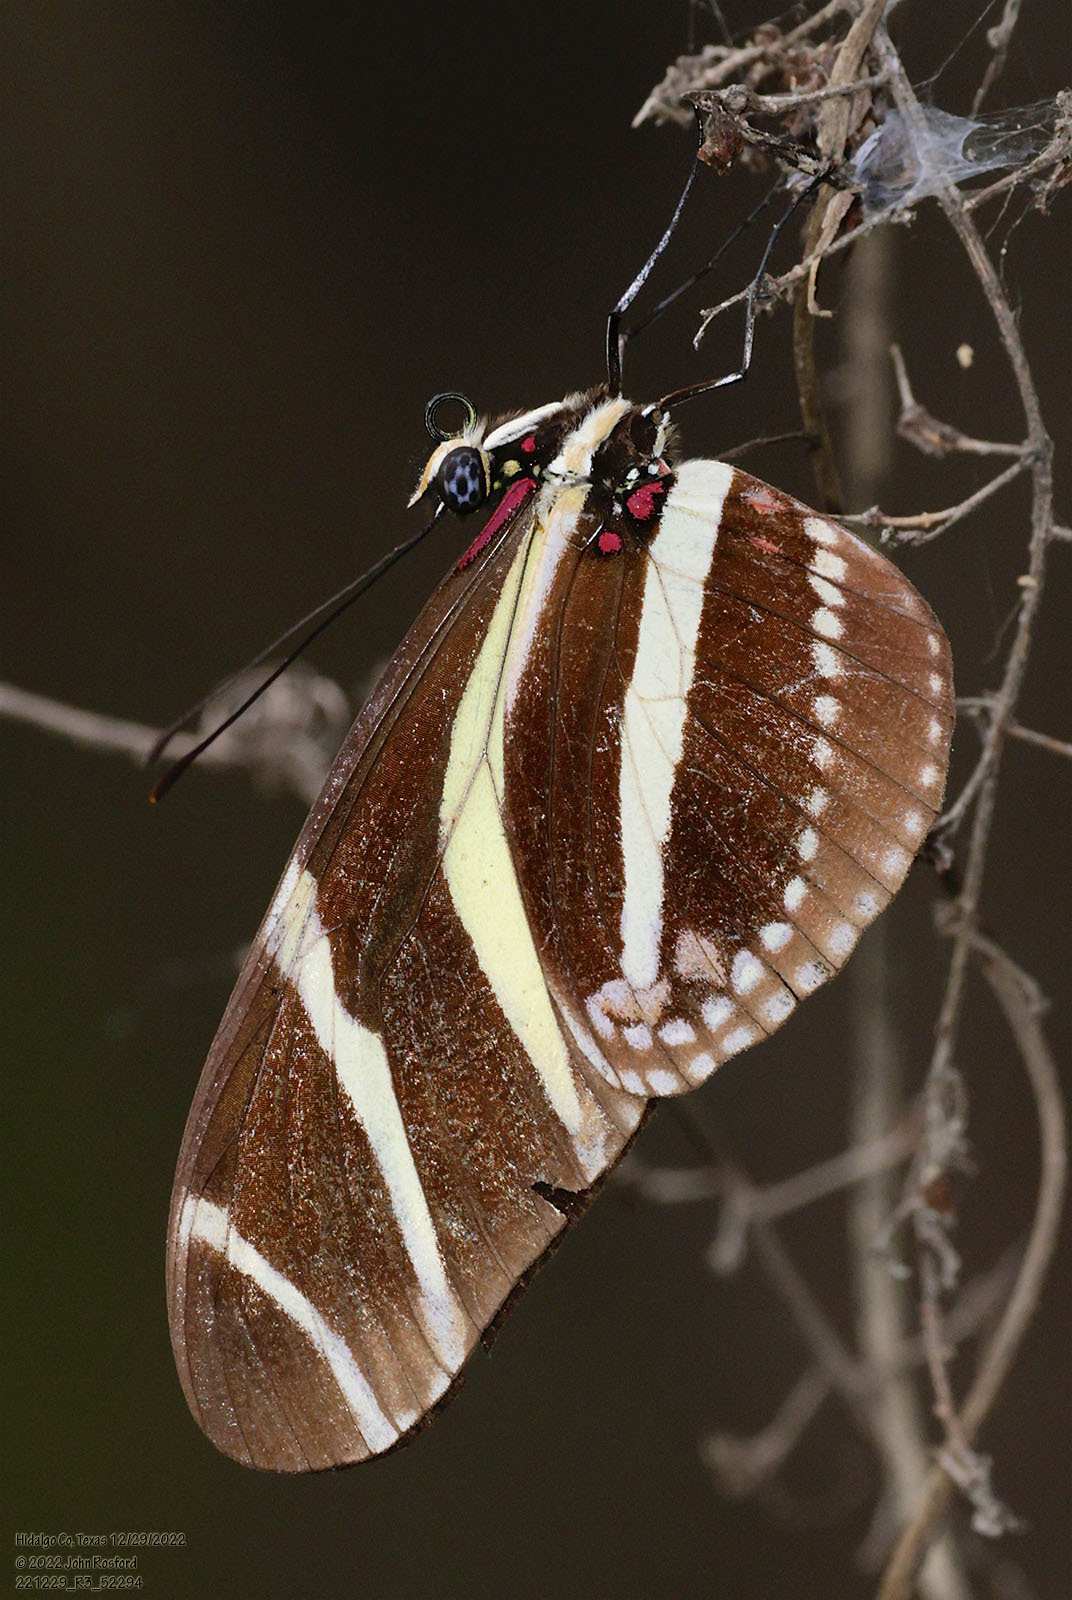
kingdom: Animalia
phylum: Arthropoda
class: Insecta
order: Lepidoptera
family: Nymphalidae
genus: Heliconius
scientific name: Heliconius charithonia
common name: Zebra long wing
